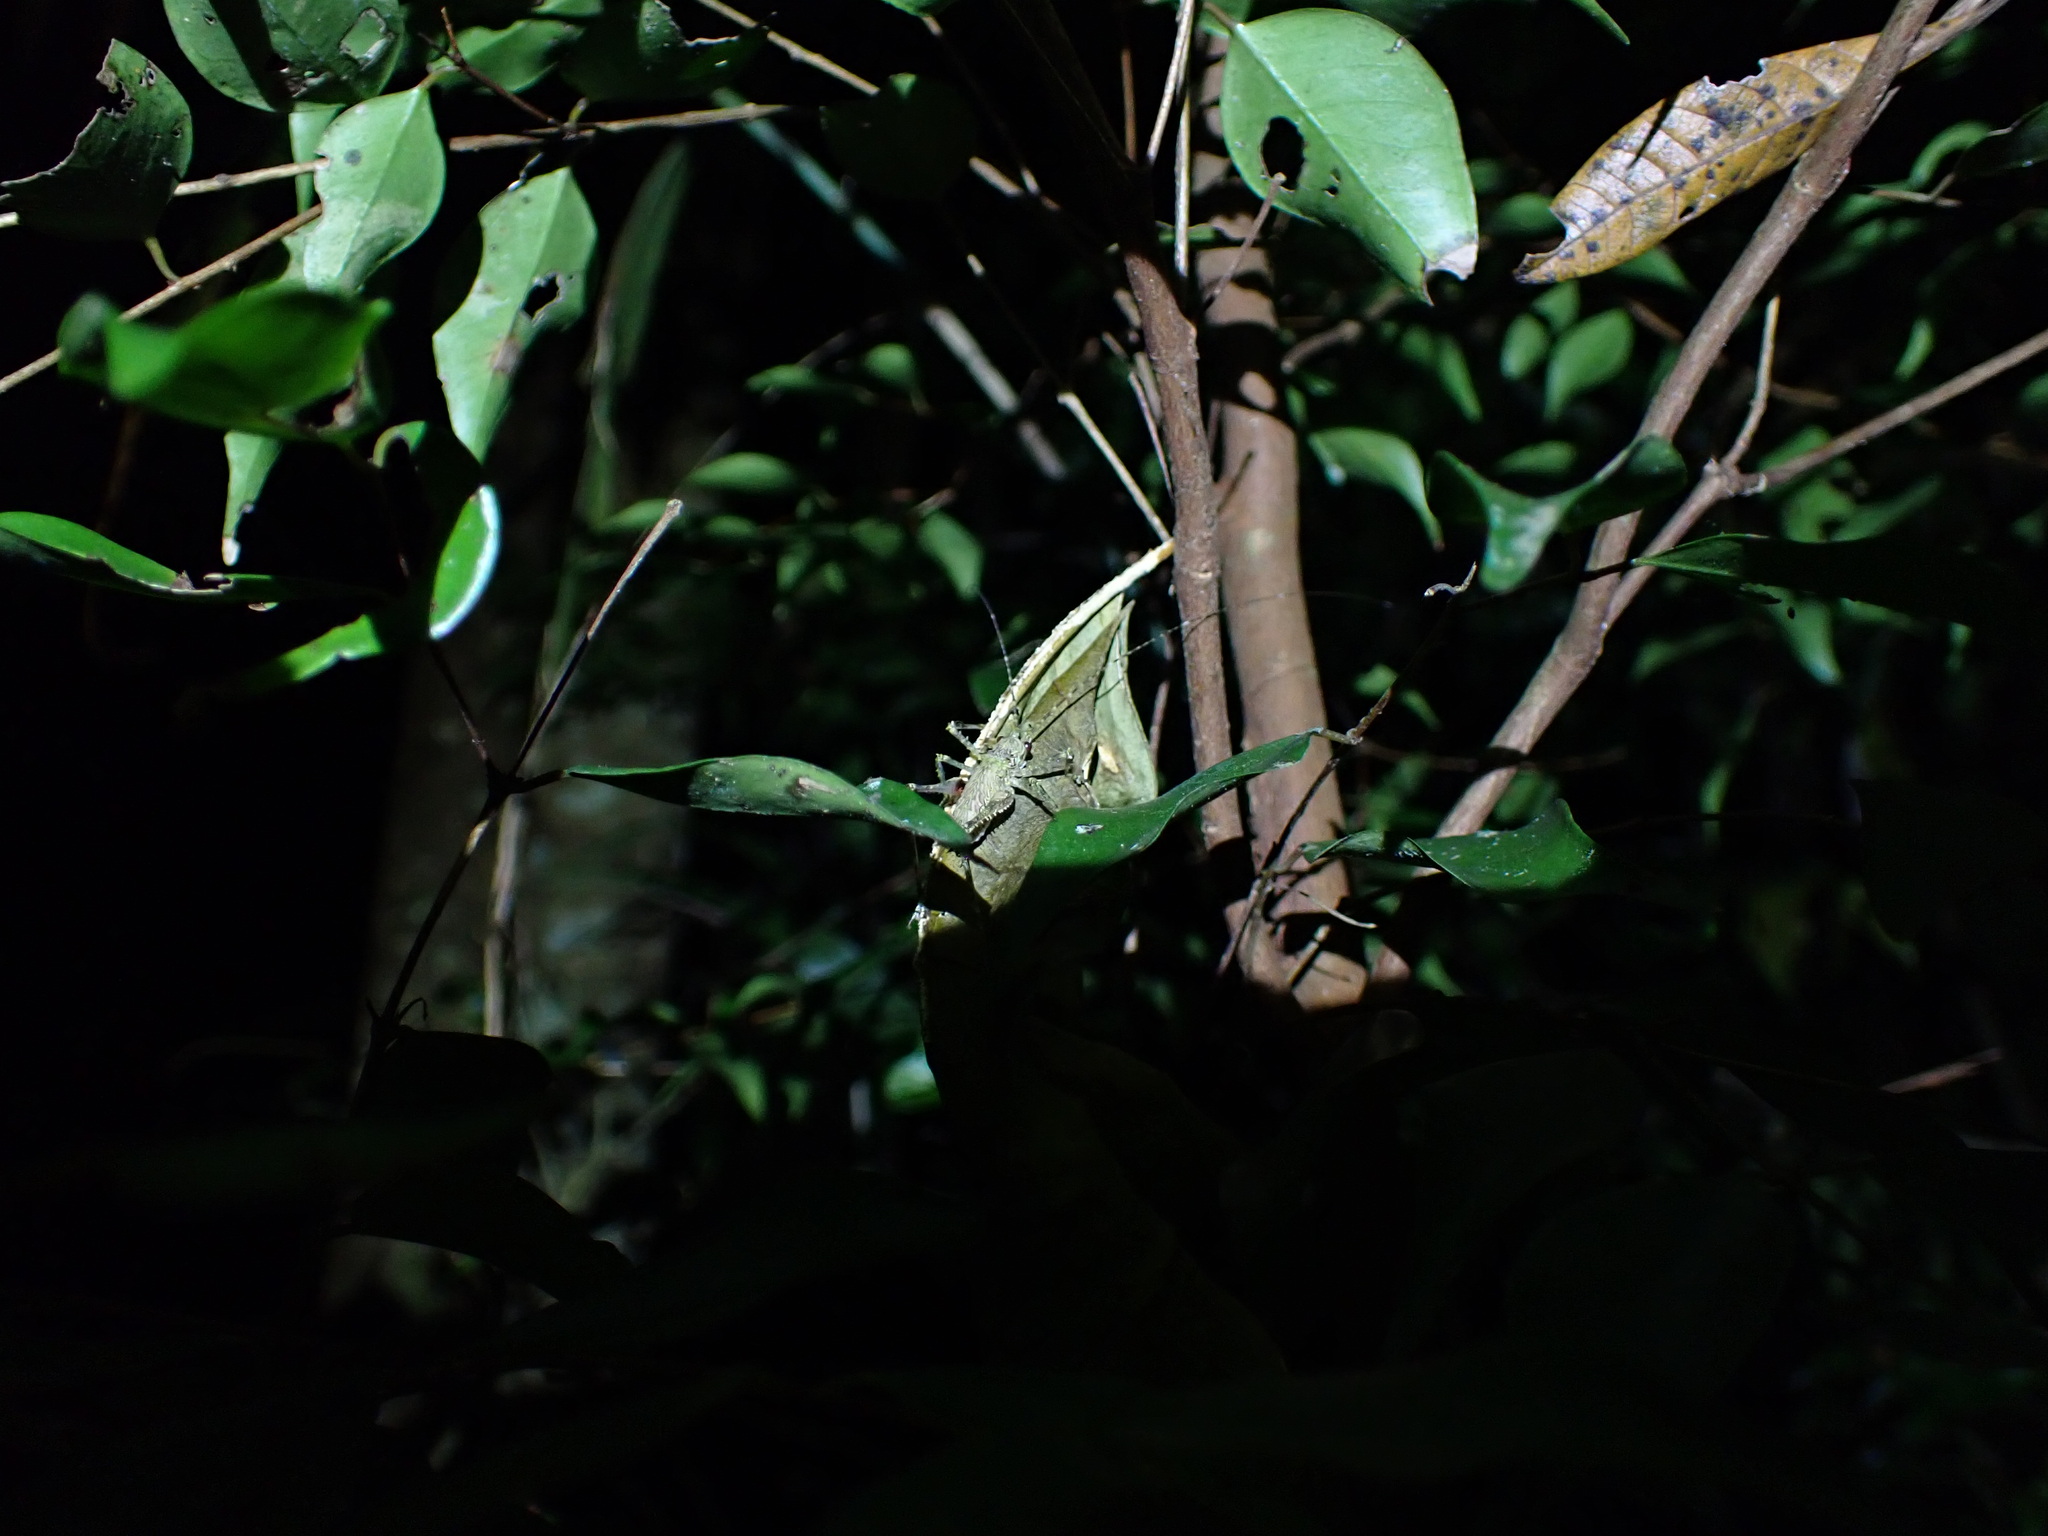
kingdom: Animalia
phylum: Arthropoda
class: Insecta
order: Orthoptera
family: Tettigoniidae
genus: Phricta
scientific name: Phricta spinosa
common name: Giant spiny forest katydid
